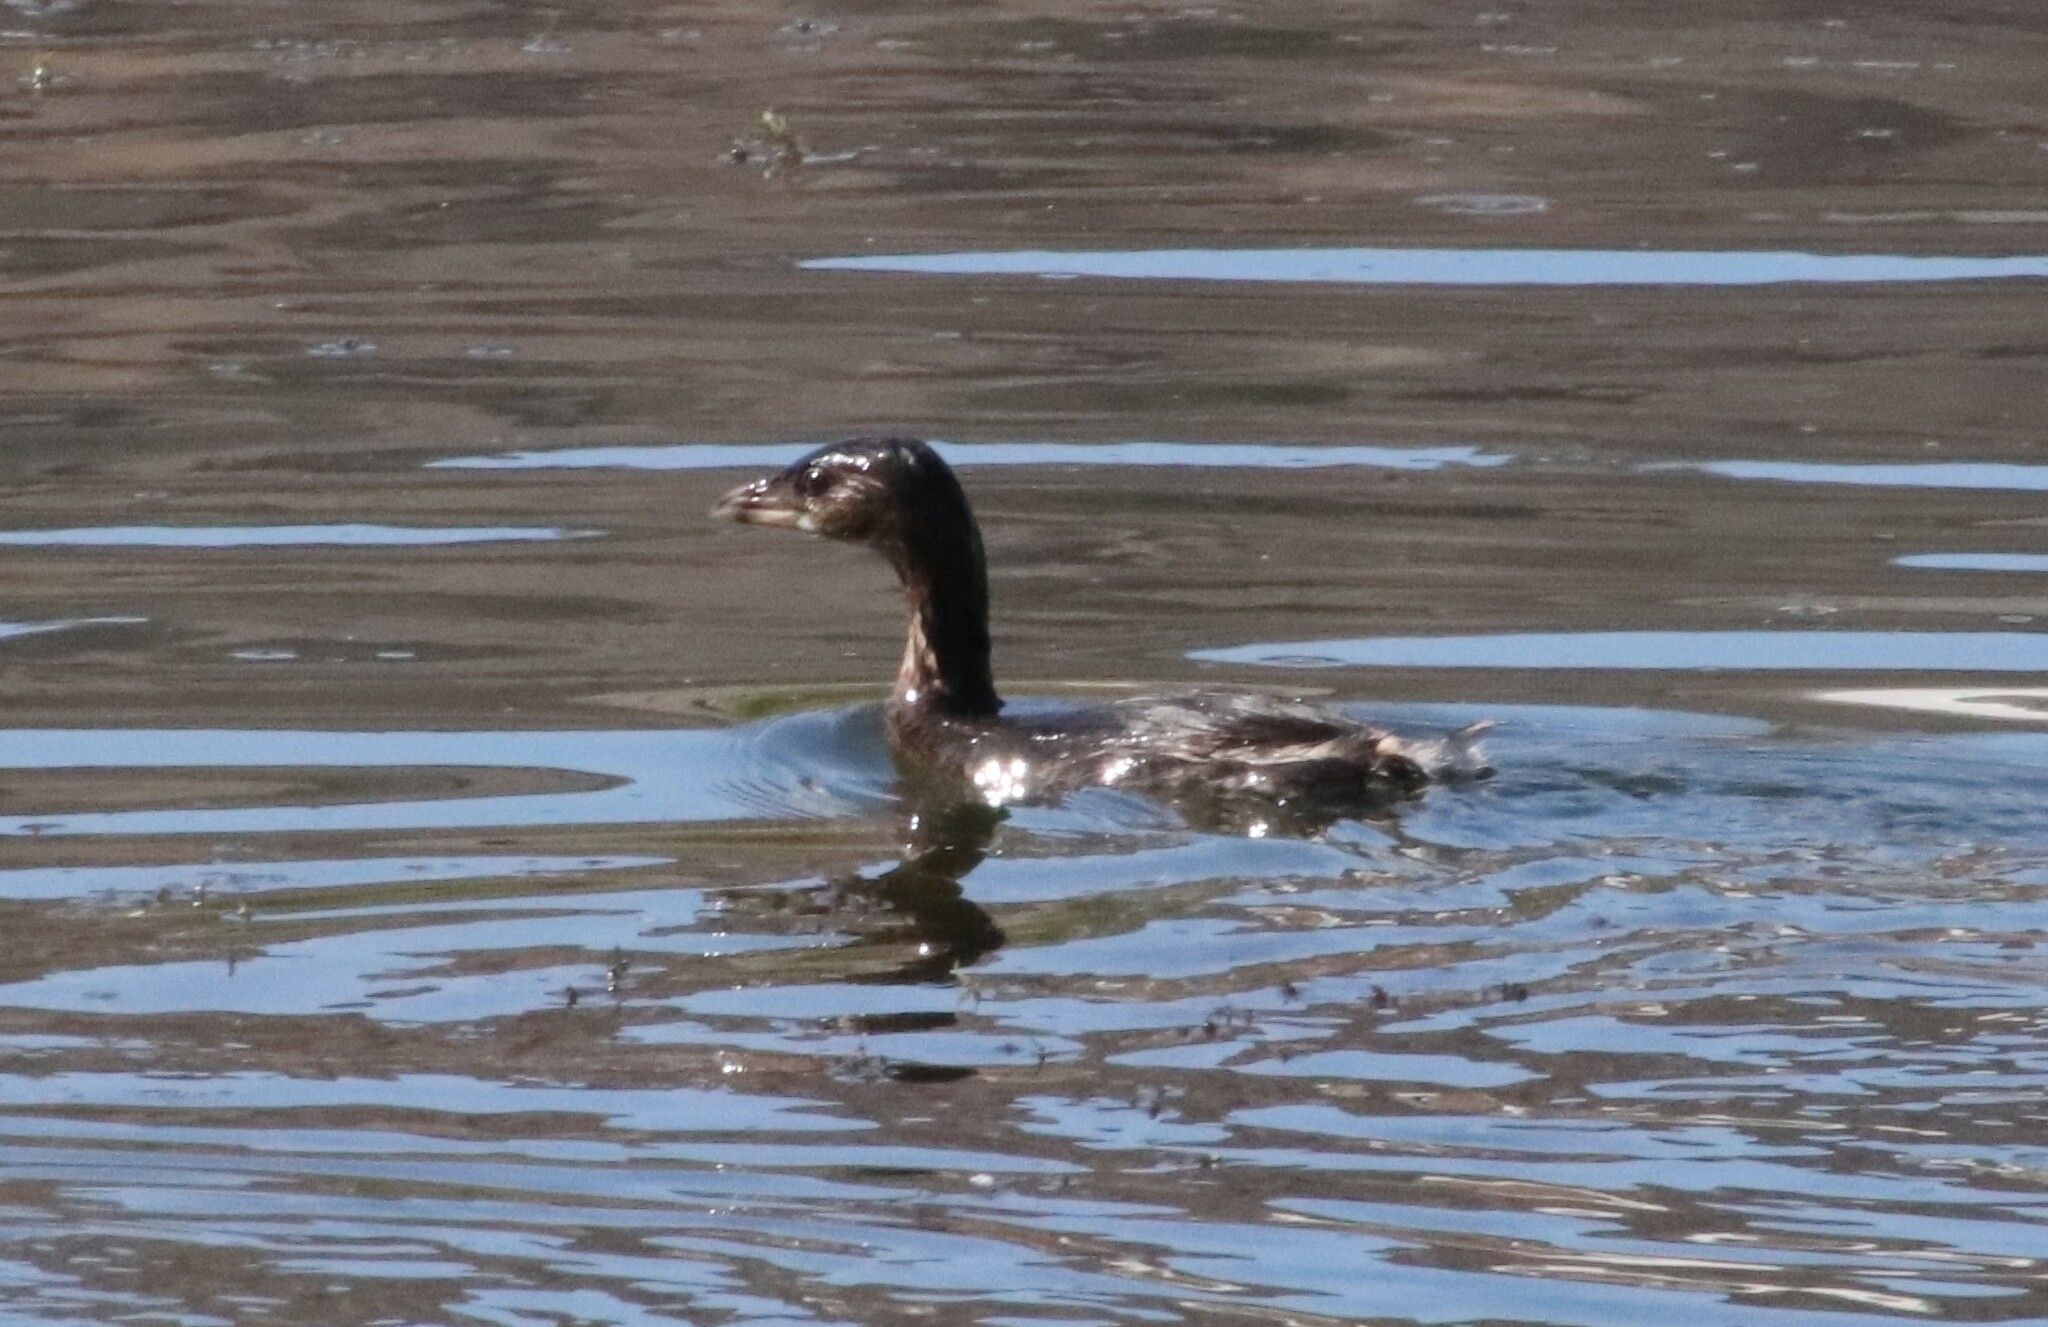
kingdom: Animalia
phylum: Chordata
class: Aves
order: Podicipediformes
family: Podicipedidae
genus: Podilymbus
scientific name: Podilymbus podiceps
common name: Pied-billed grebe
